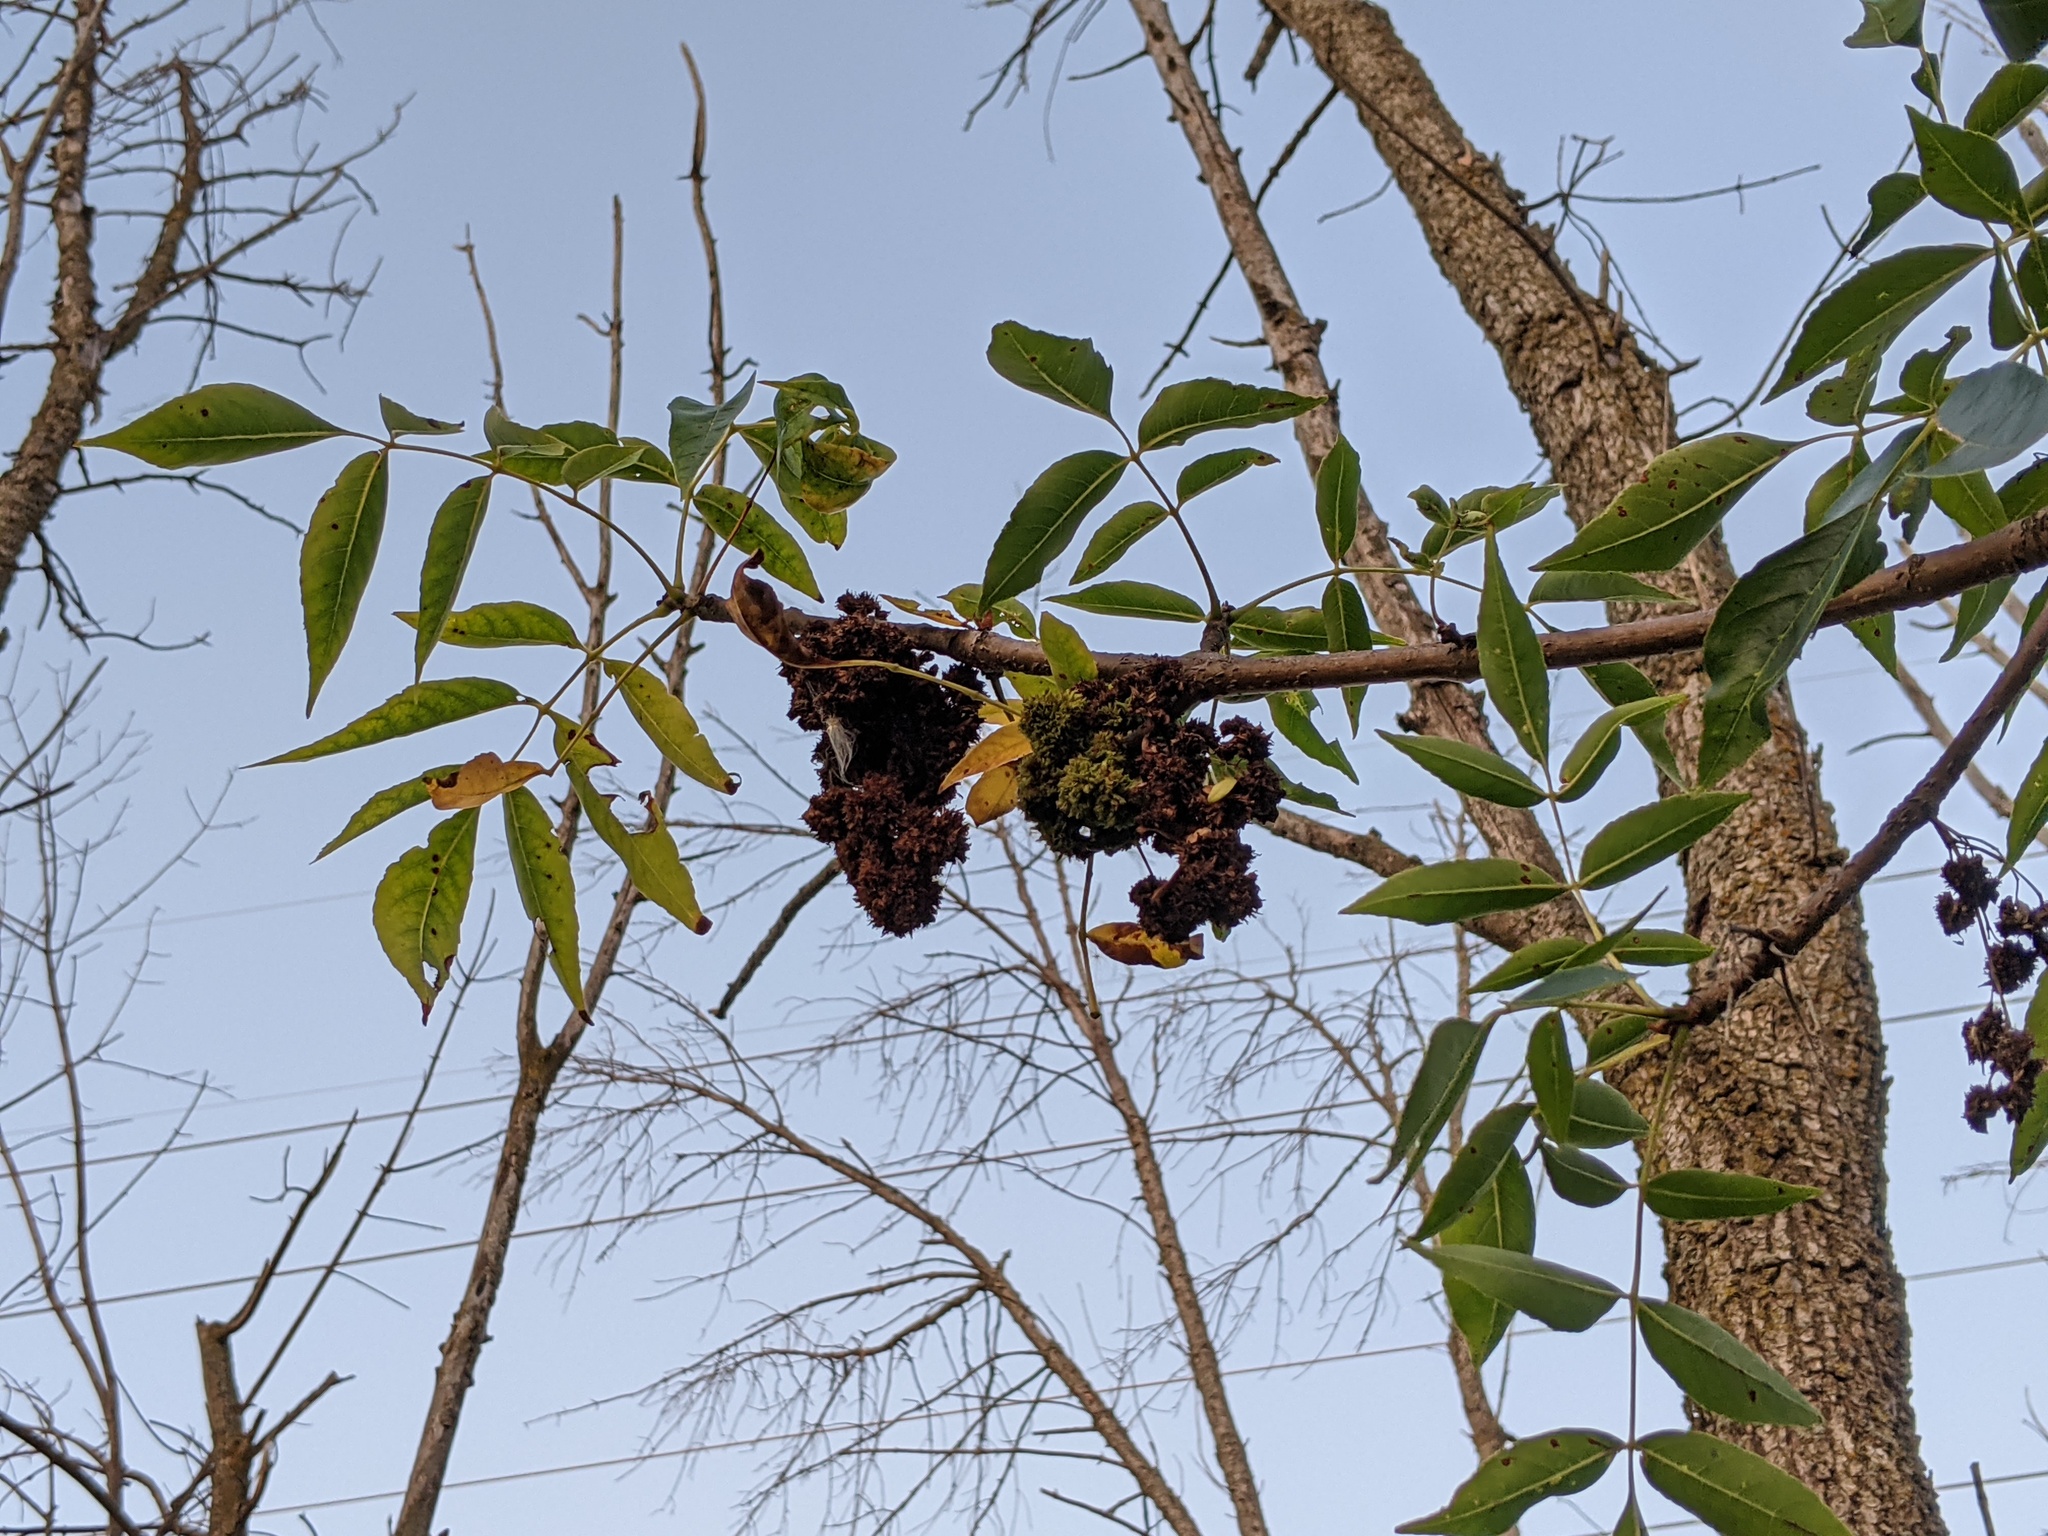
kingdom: Animalia
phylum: Arthropoda
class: Arachnida
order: Trombidiformes
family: Eriophyidae
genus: Aceria
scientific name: Aceria fraxiniflora
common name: Ash flower gall mite
